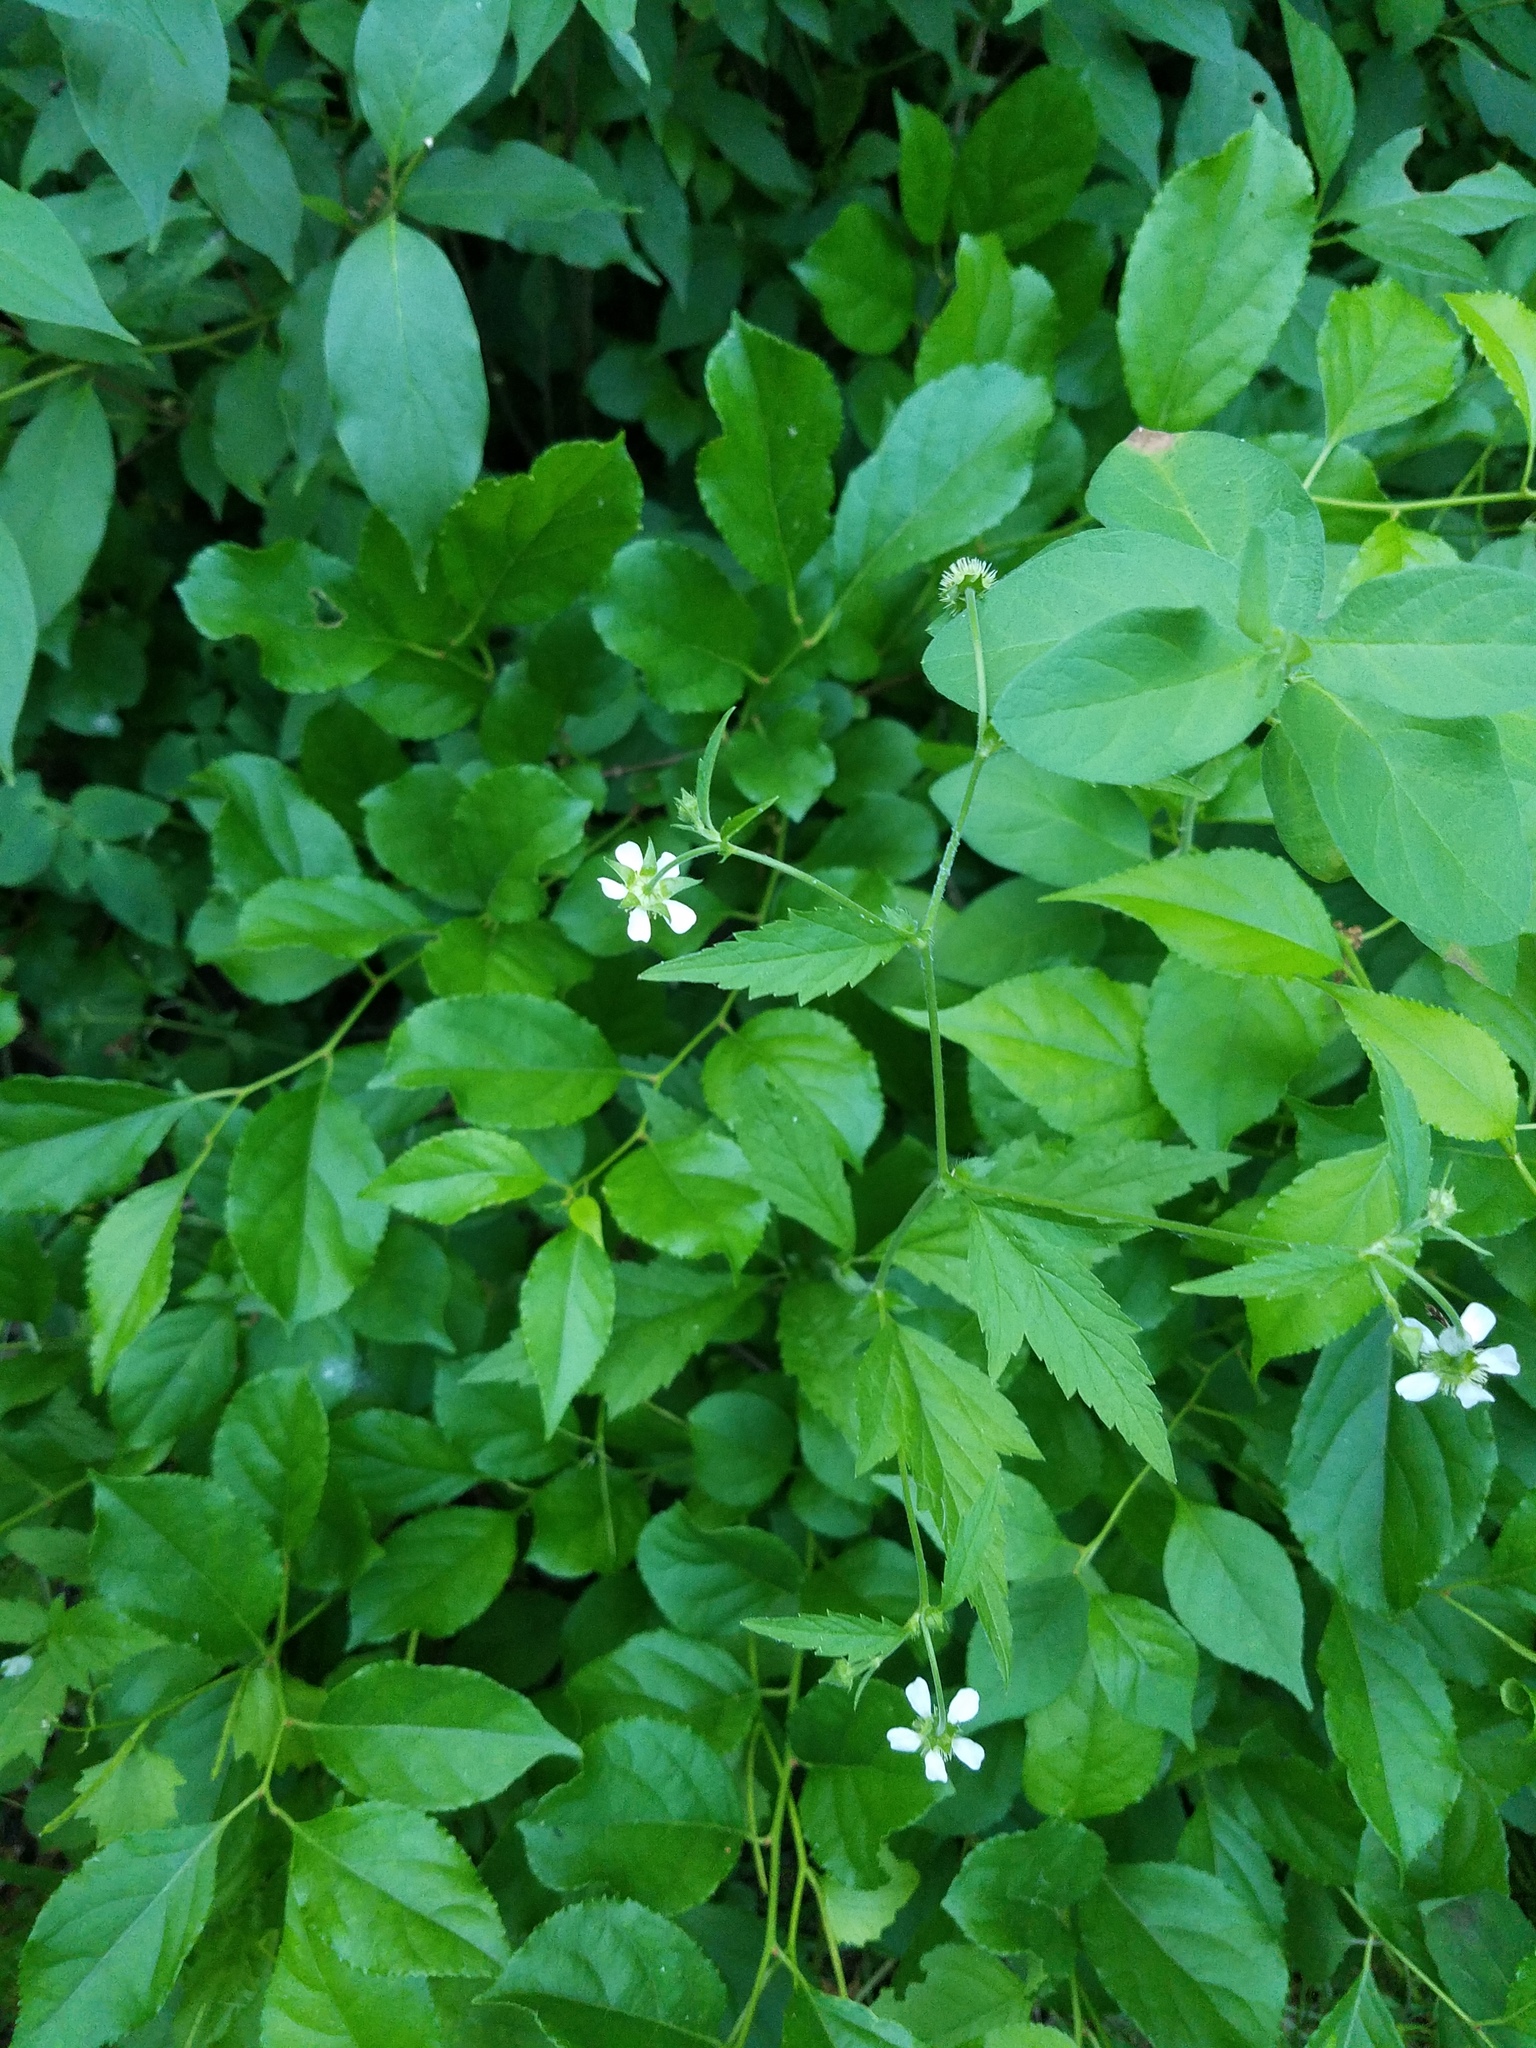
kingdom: Plantae
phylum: Tracheophyta
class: Magnoliopsida
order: Rosales
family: Rosaceae
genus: Geum
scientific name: Geum canadense
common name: White avens
